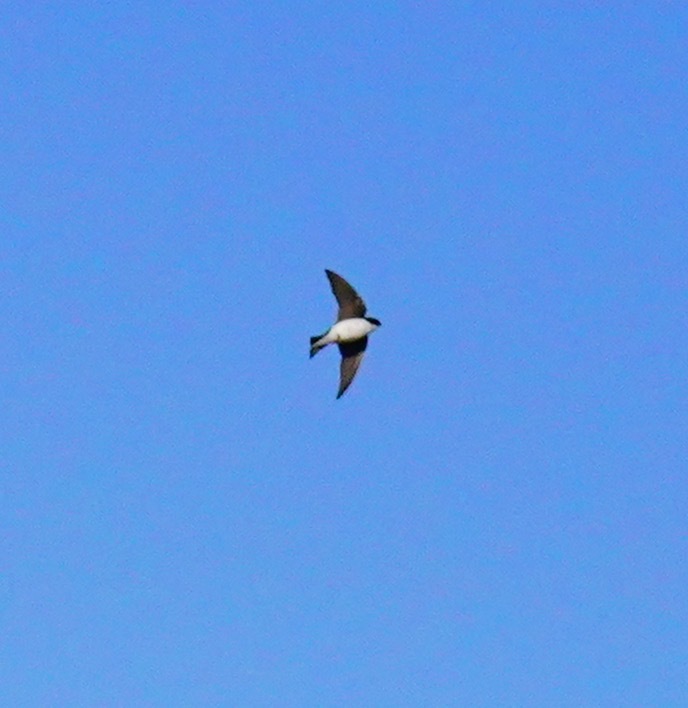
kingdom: Animalia
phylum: Chordata
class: Aves
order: Passeriformes
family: Hirundinidae
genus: Tachycineta
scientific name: Tachycineta bicolor
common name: Tree swallow
